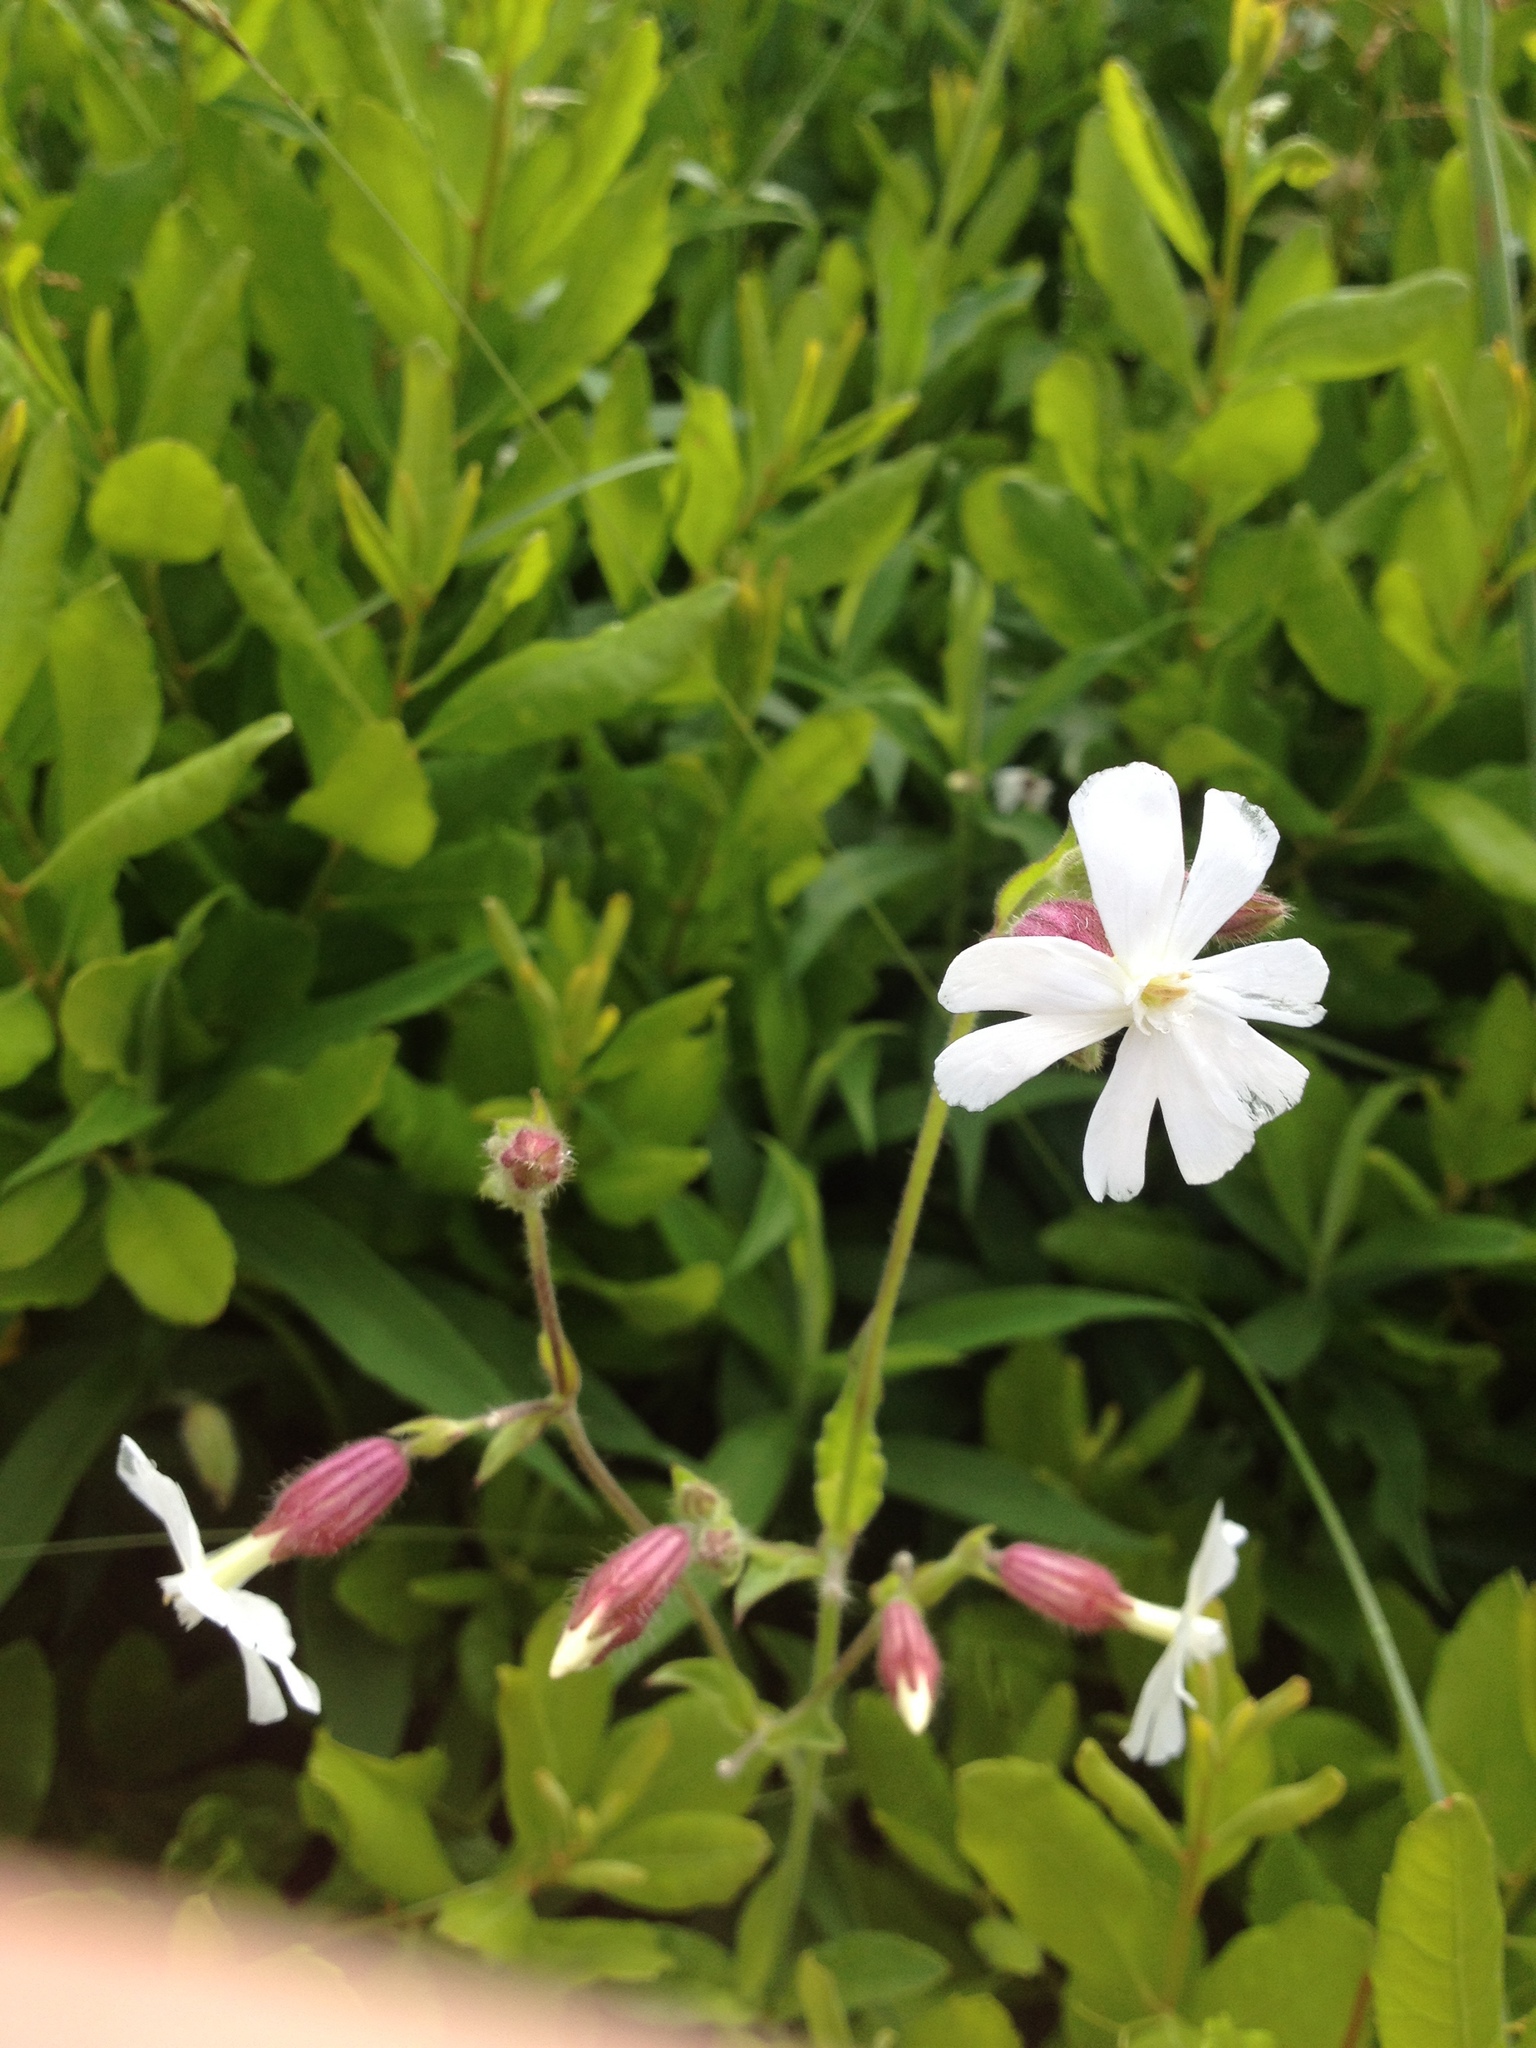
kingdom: Plantae
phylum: Tracheophyta
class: Magnoliopsida
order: Caryophyllales
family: Caryophyllaceae
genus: Silene
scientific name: Silene latifolia
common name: White campion
